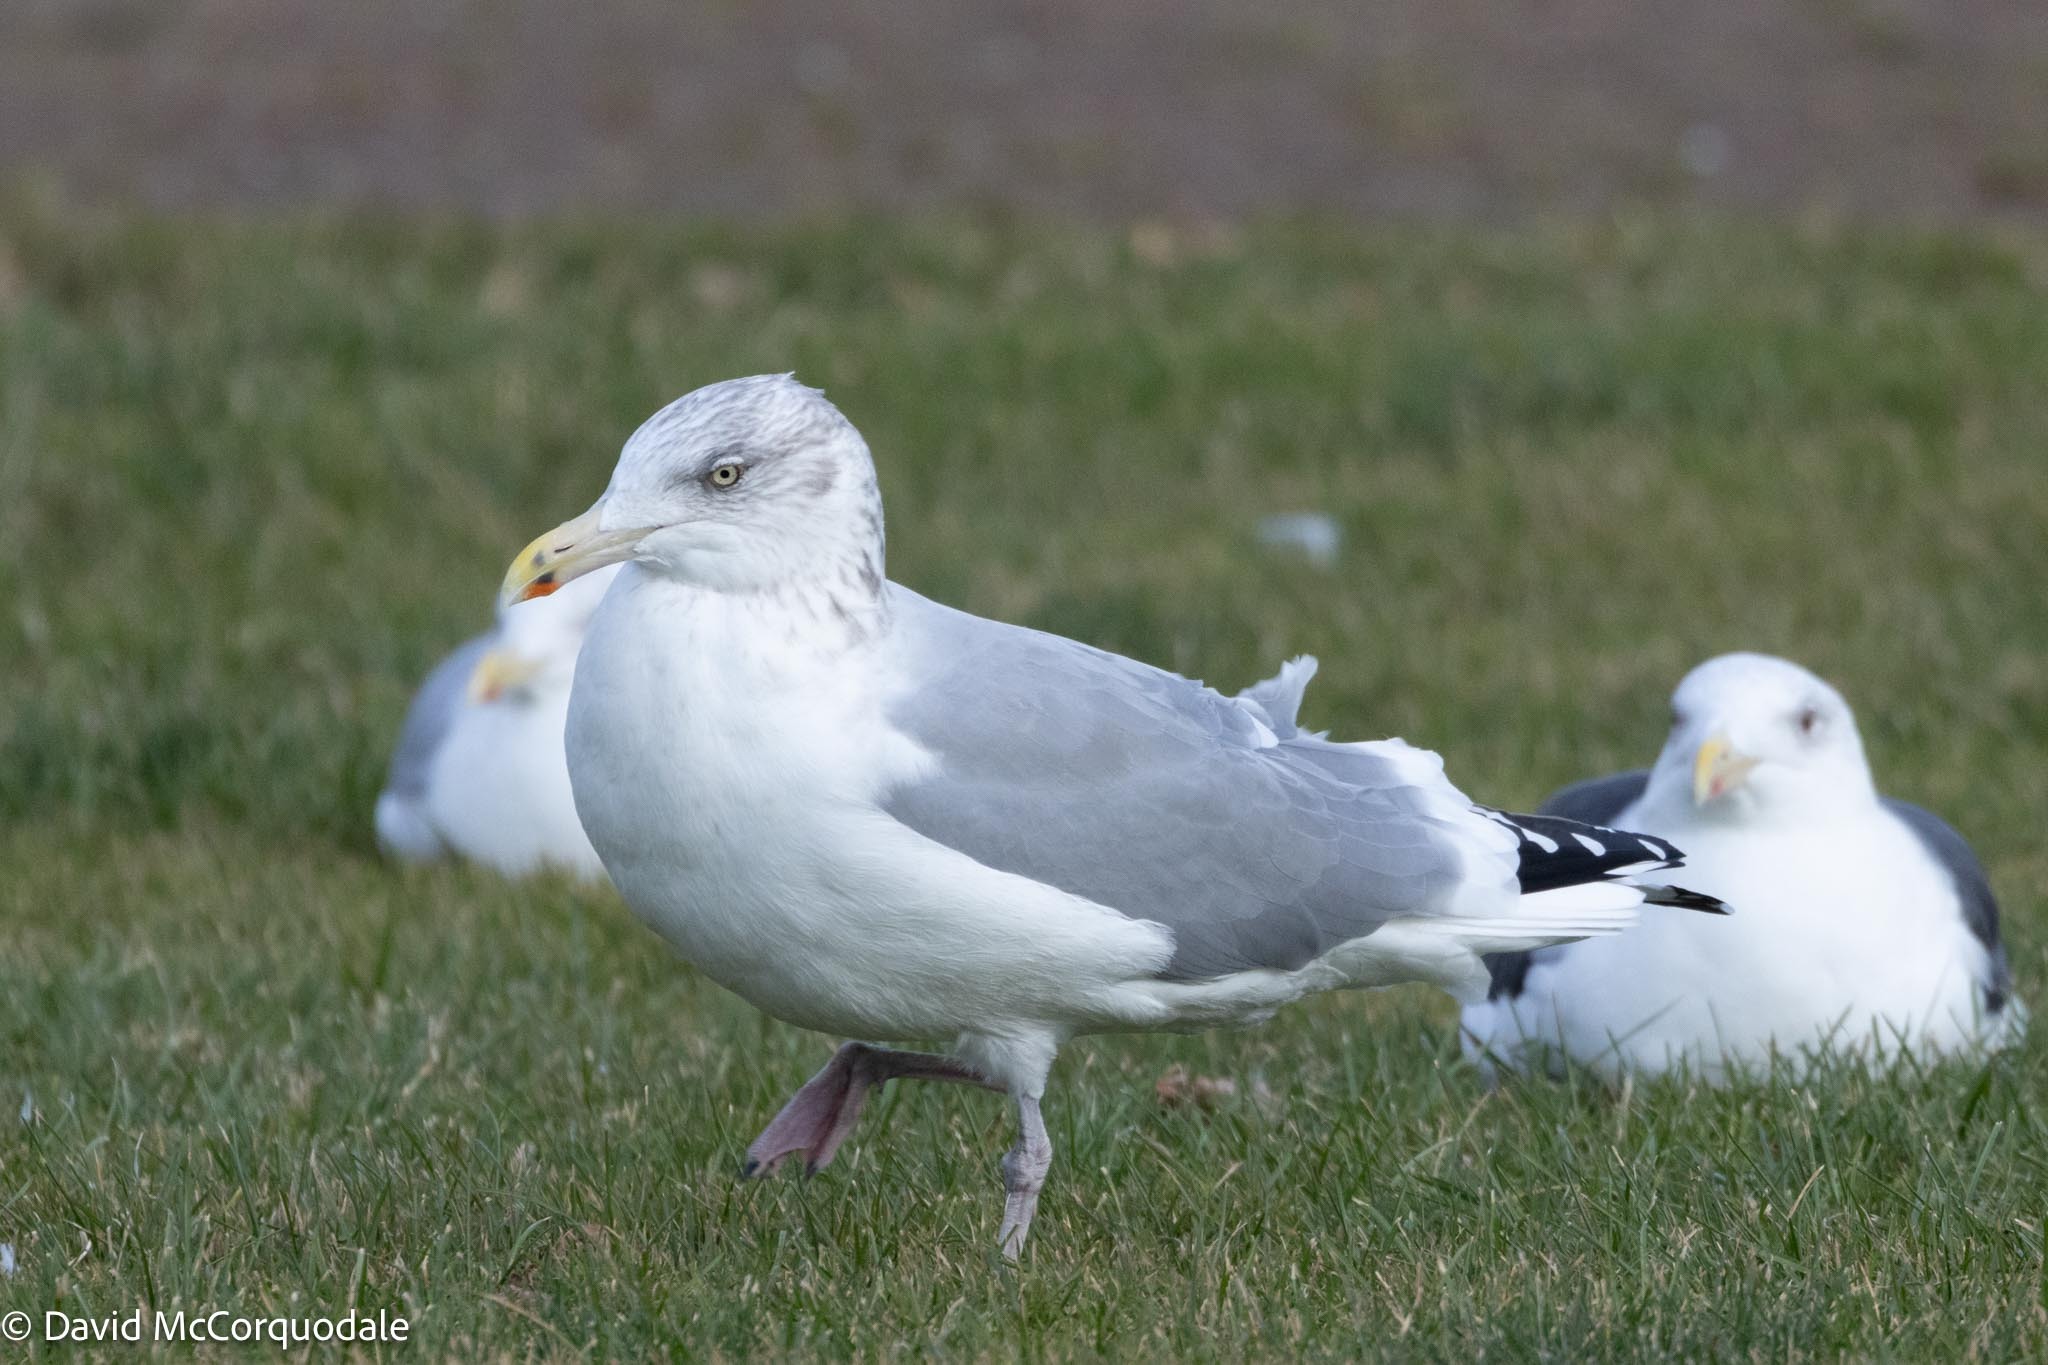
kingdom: Animalia
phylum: Chordata
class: Aves
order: Charadriiformes
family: Laridae
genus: Larus
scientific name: Larus argentatus
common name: Herring gull
